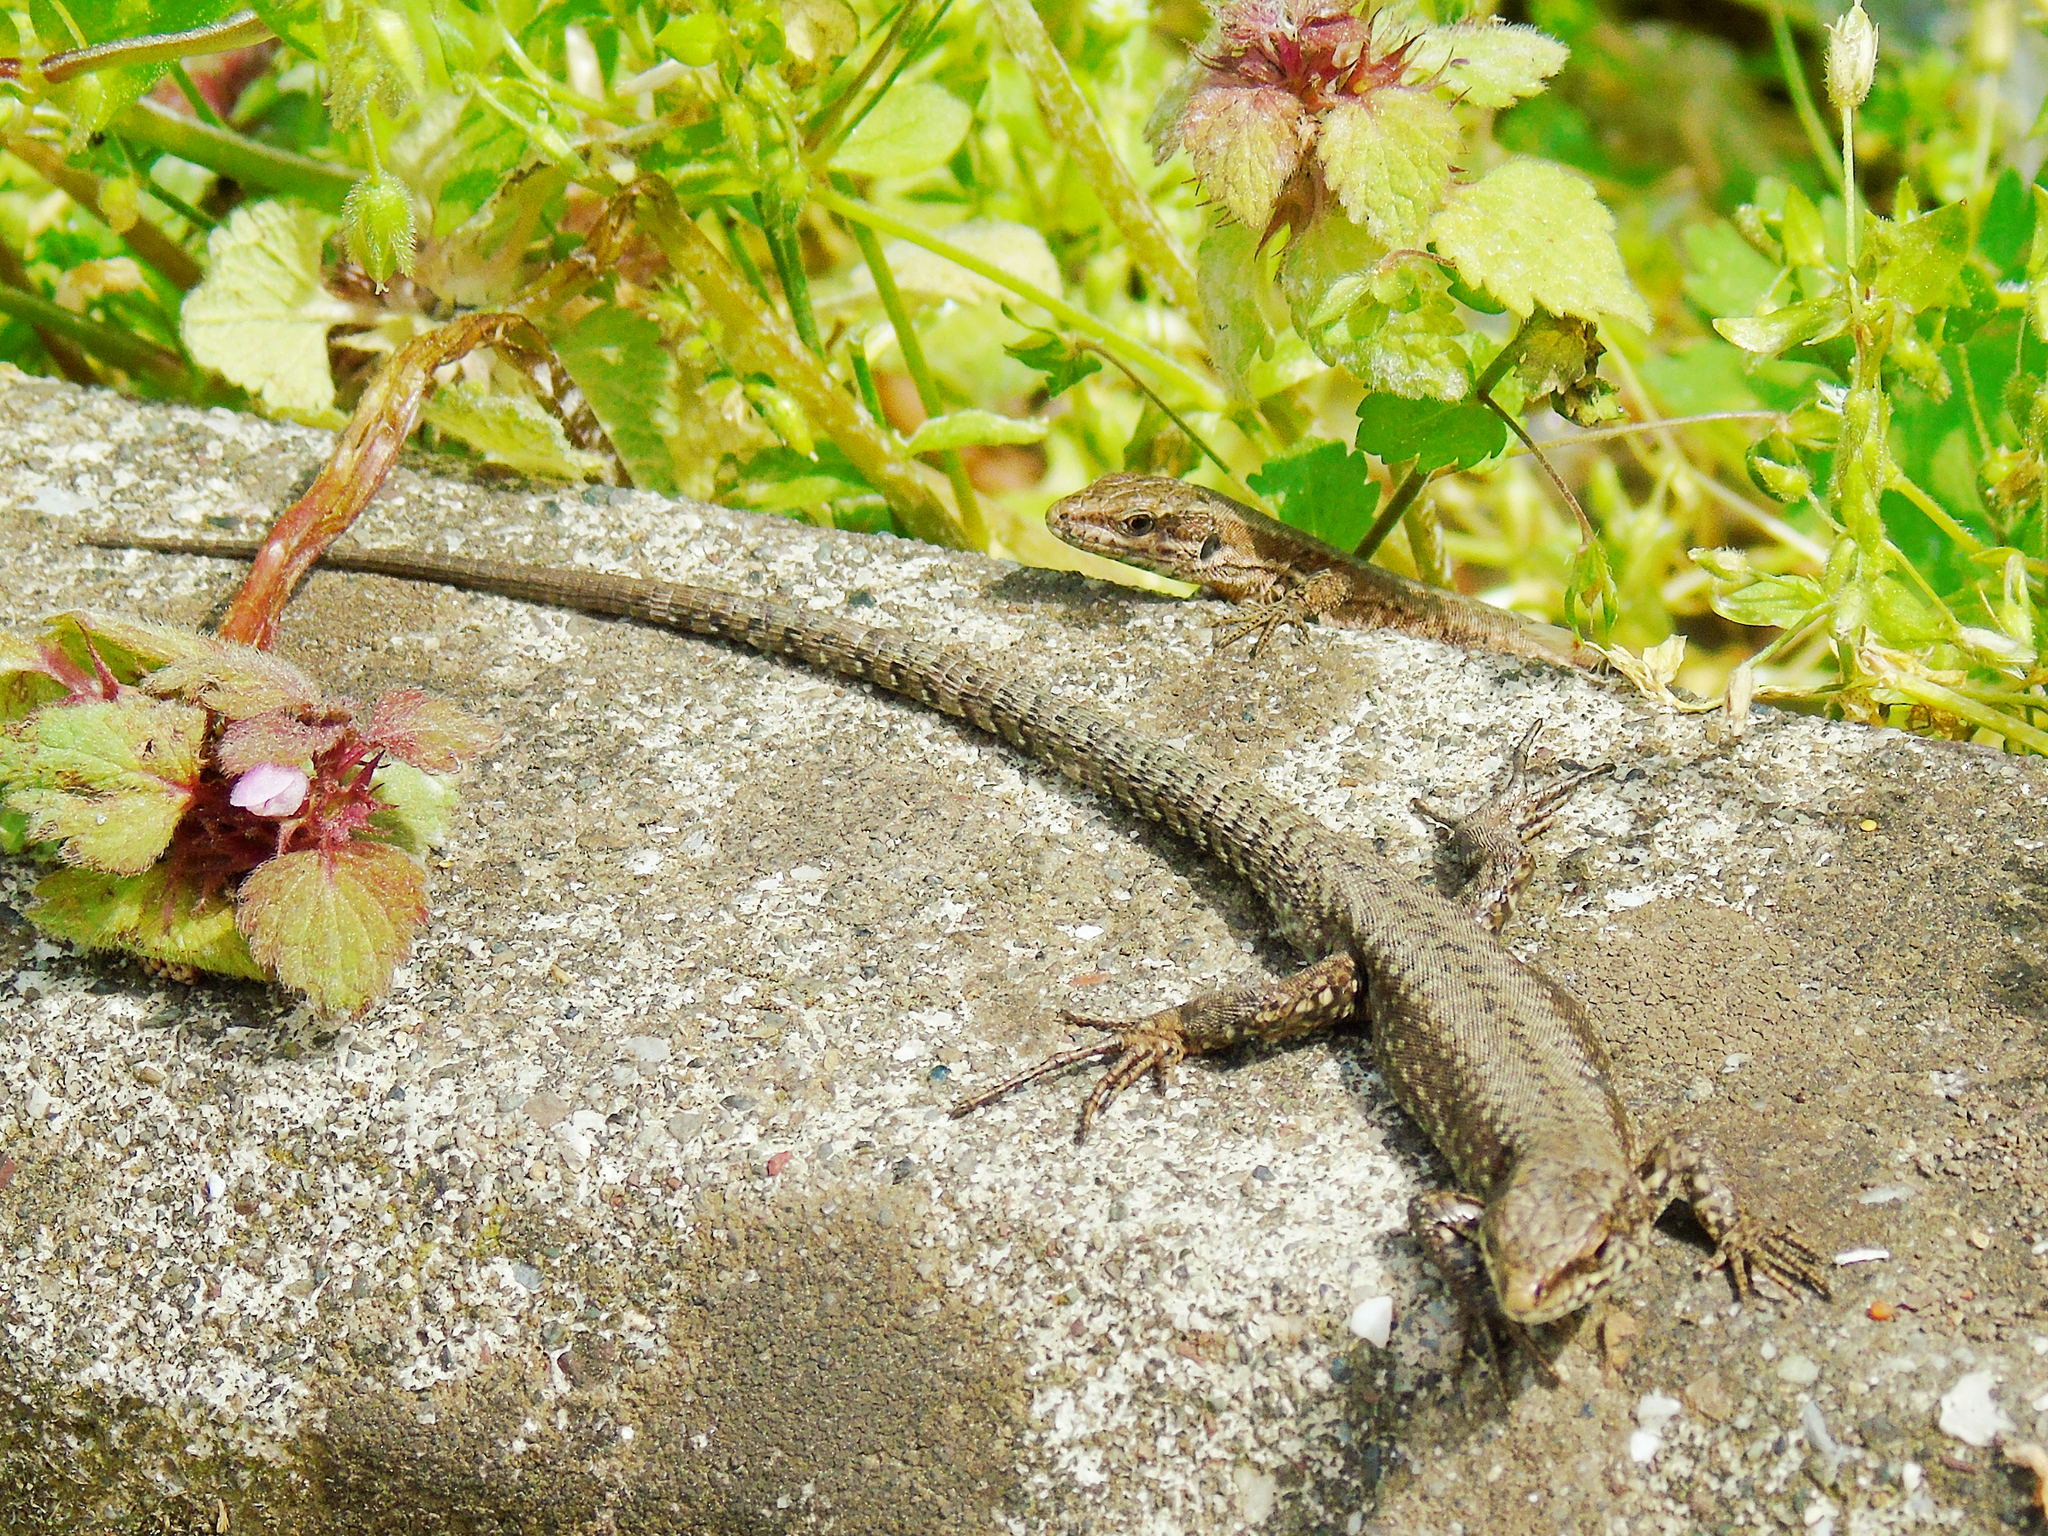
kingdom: Animalia
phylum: Chordata
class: Squamata
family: Lacertidae
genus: Podarcis
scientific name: Podarcis muralis
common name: Common wall lizard
